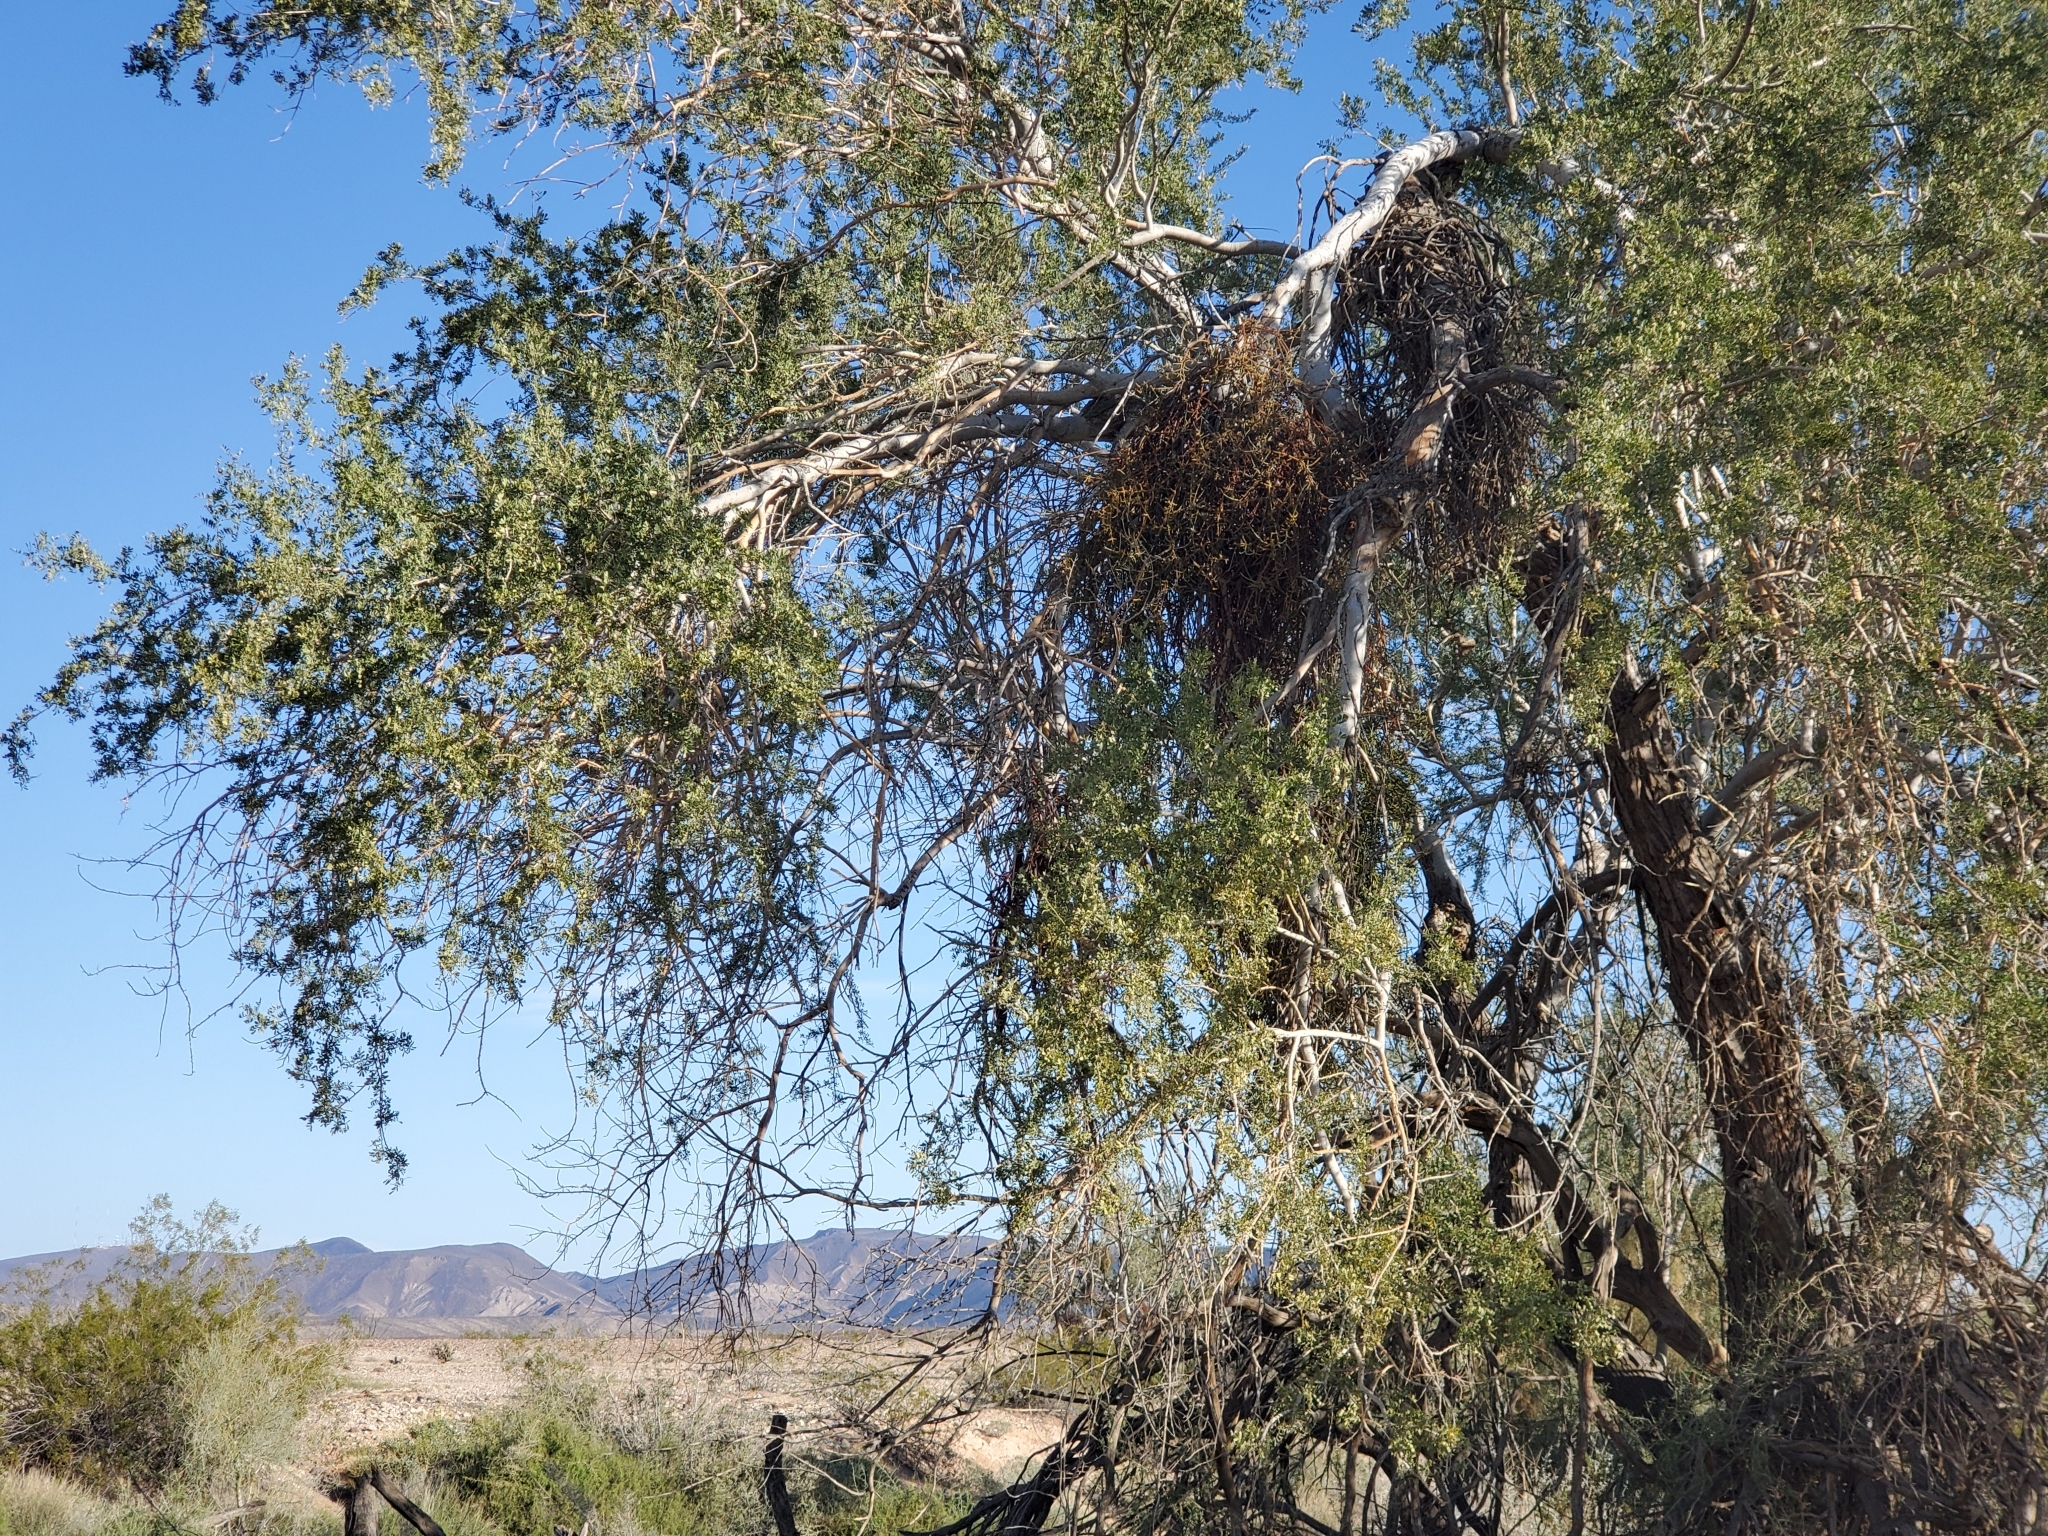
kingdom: Plantae
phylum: Tracheophyta
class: Magnoliopsida
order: Santalales
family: Viscaceae
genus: Phoradendron
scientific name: Phoradendron californicum
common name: Acacia mistletoe
